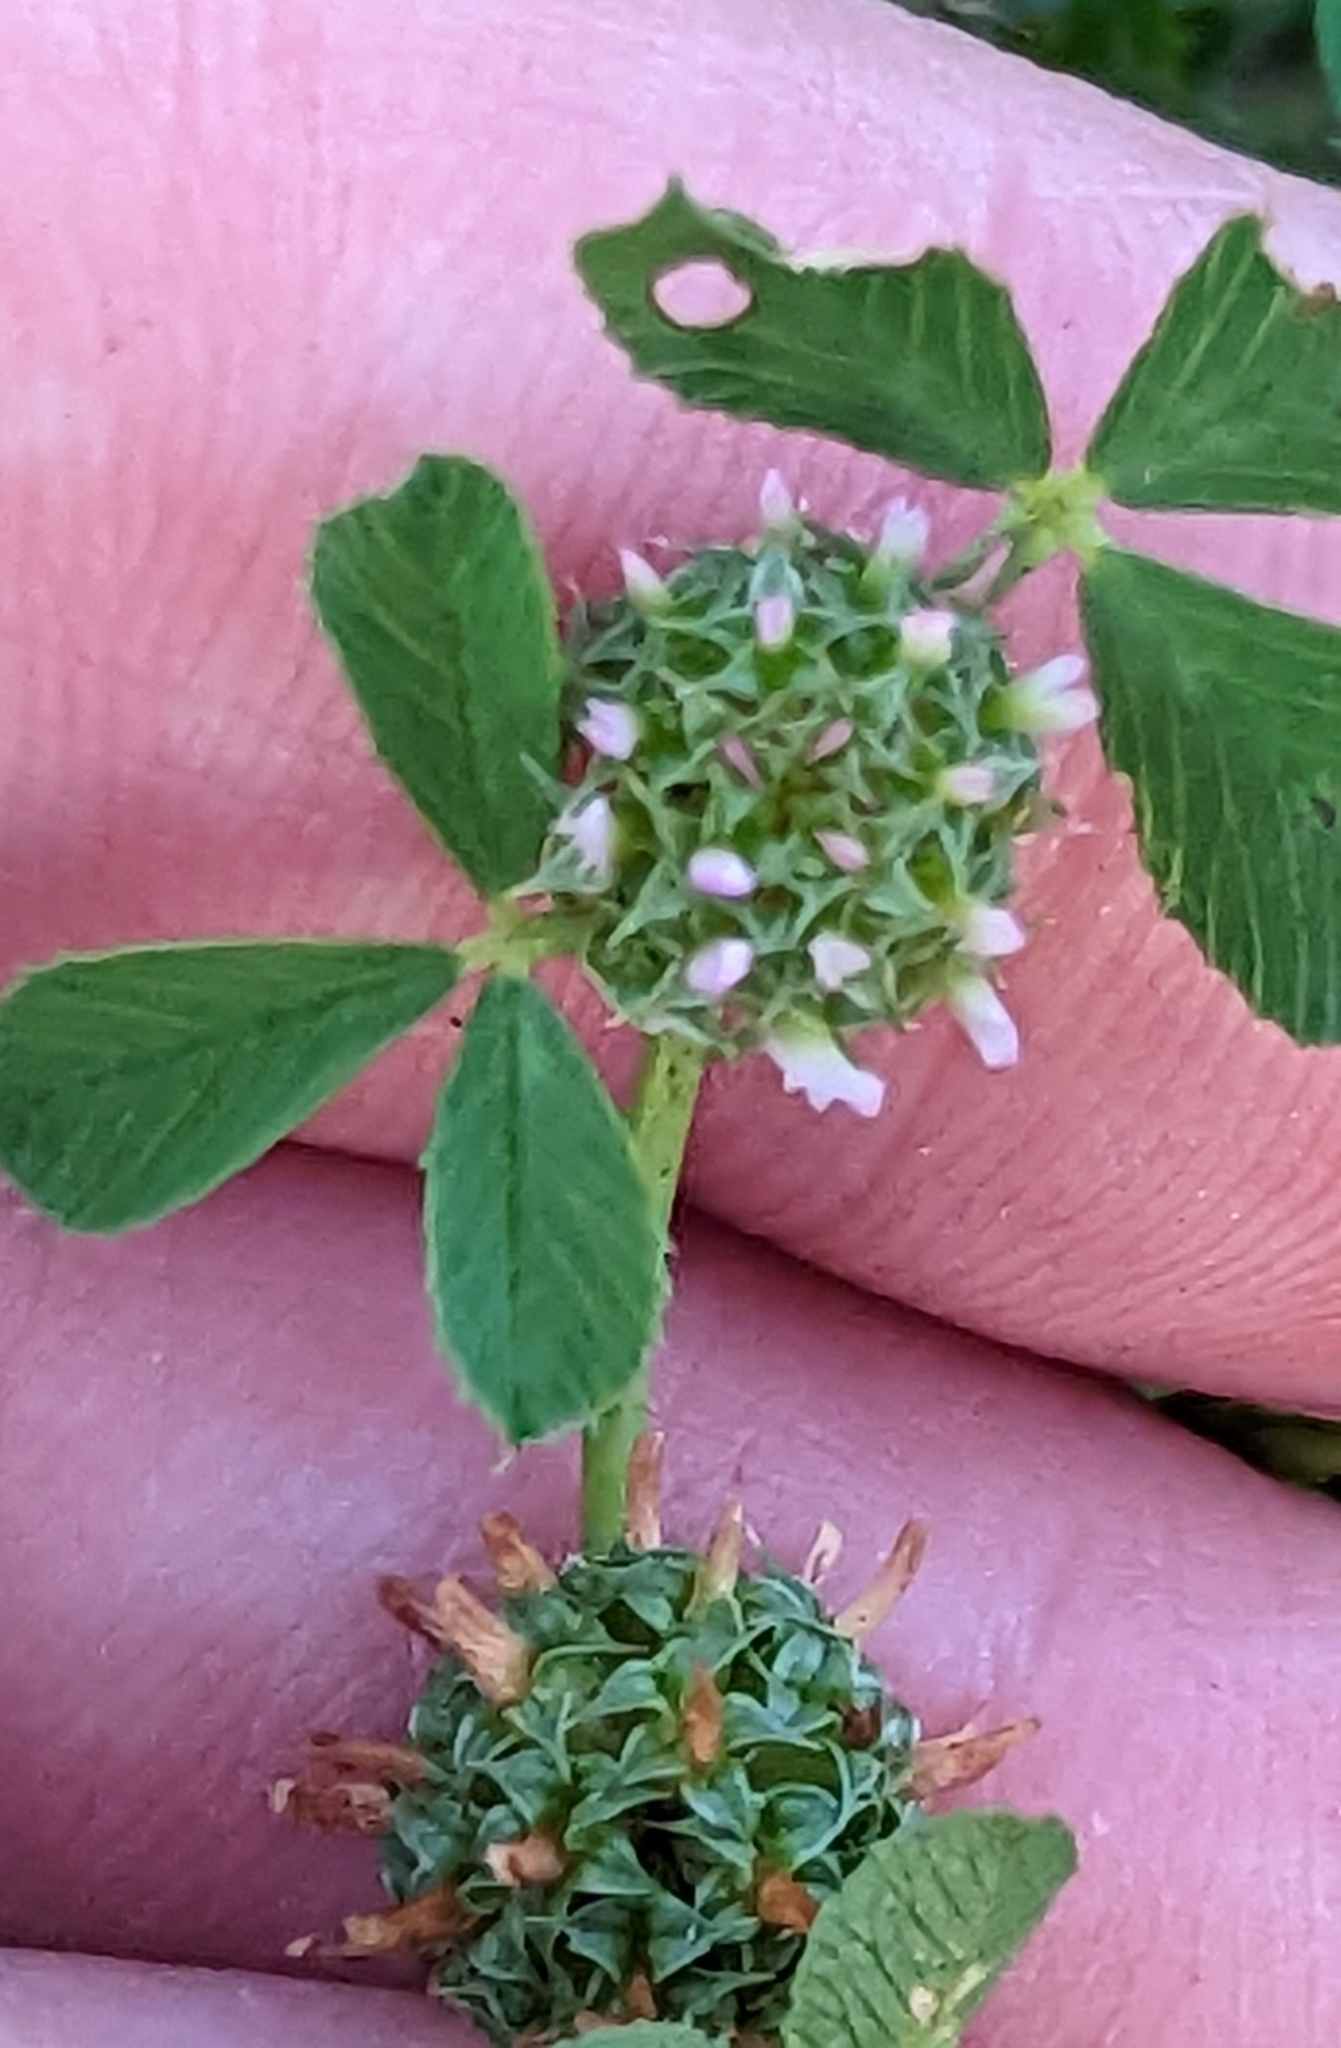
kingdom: Plantae
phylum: Tracheophyta
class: Magnoliopsida
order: Fabales
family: Fabaceae
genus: Trifolium
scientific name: Trifolium glomeratum
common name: Clustered clover
